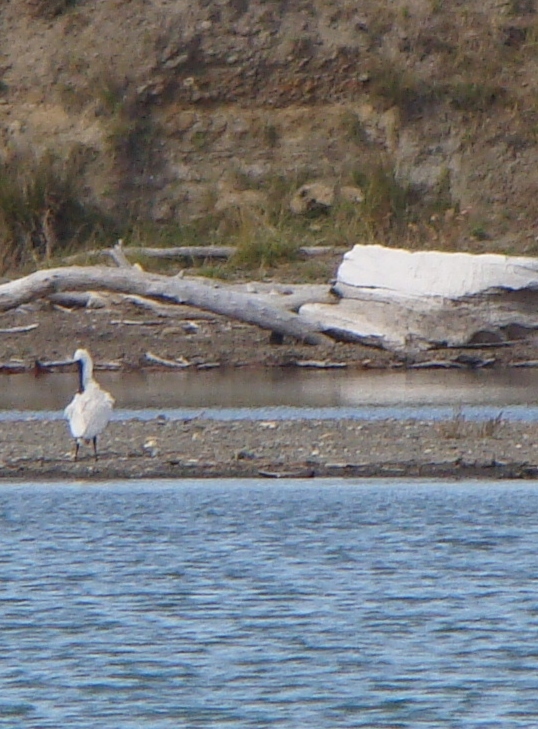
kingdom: Animalia
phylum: Chordata
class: Aves
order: Pelecaniformes
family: Threskiornithidae
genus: Platalea
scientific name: Platalea regia
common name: Royal spoonbill
